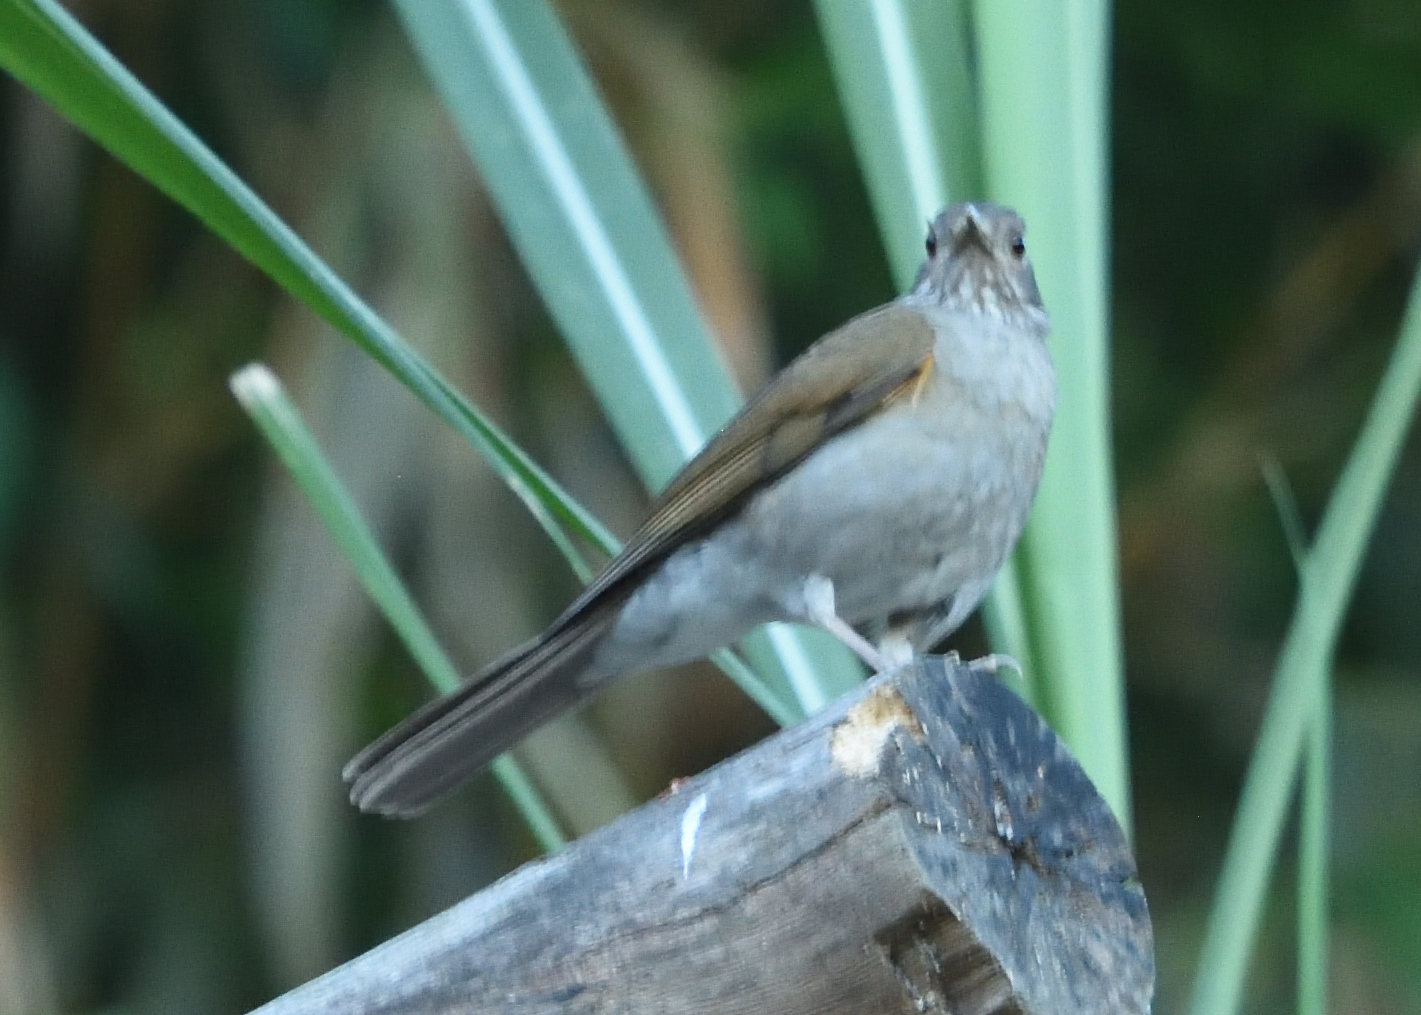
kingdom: Animalia
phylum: Chordata
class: Aves
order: Passeriformes
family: Turdidae
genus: Turdus
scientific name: Turdus leucomelas
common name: Pale-breasted thrush
